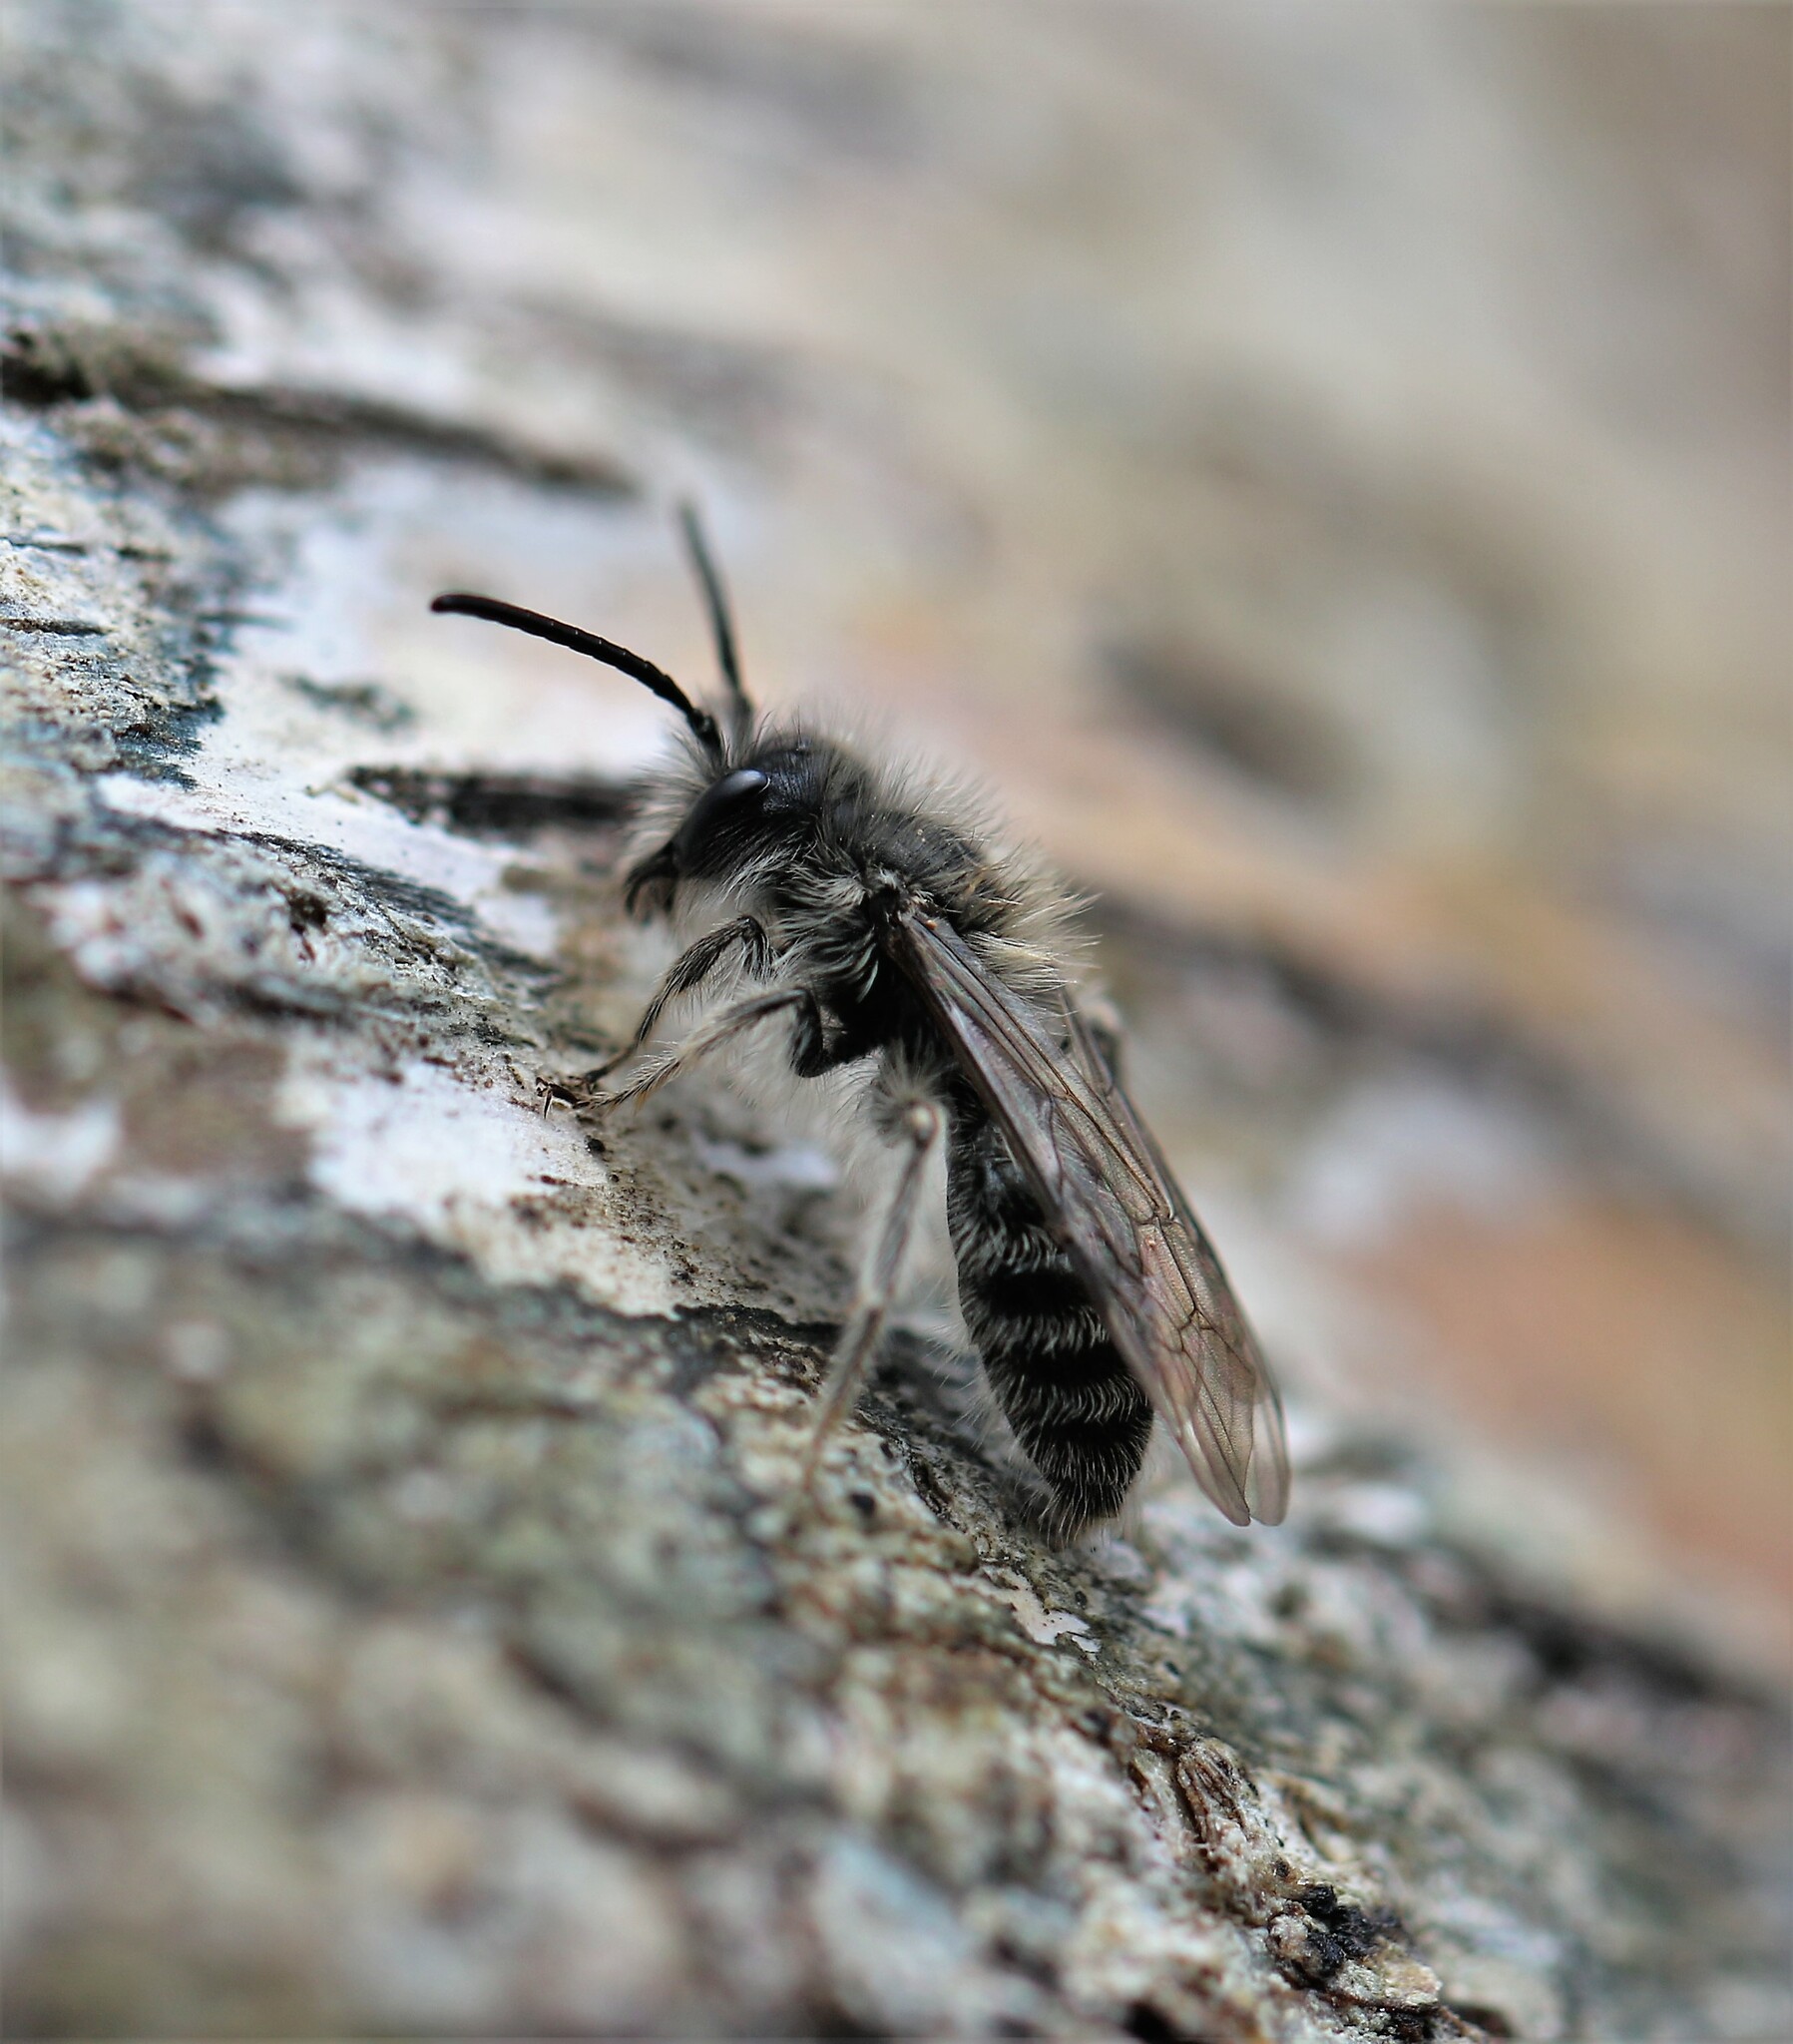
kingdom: Animalia
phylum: Arthropoda
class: Insecta
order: Hymenoptera
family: Andrenidae
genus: Andrena
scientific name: Andrena frigida
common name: Frigid mining bee
